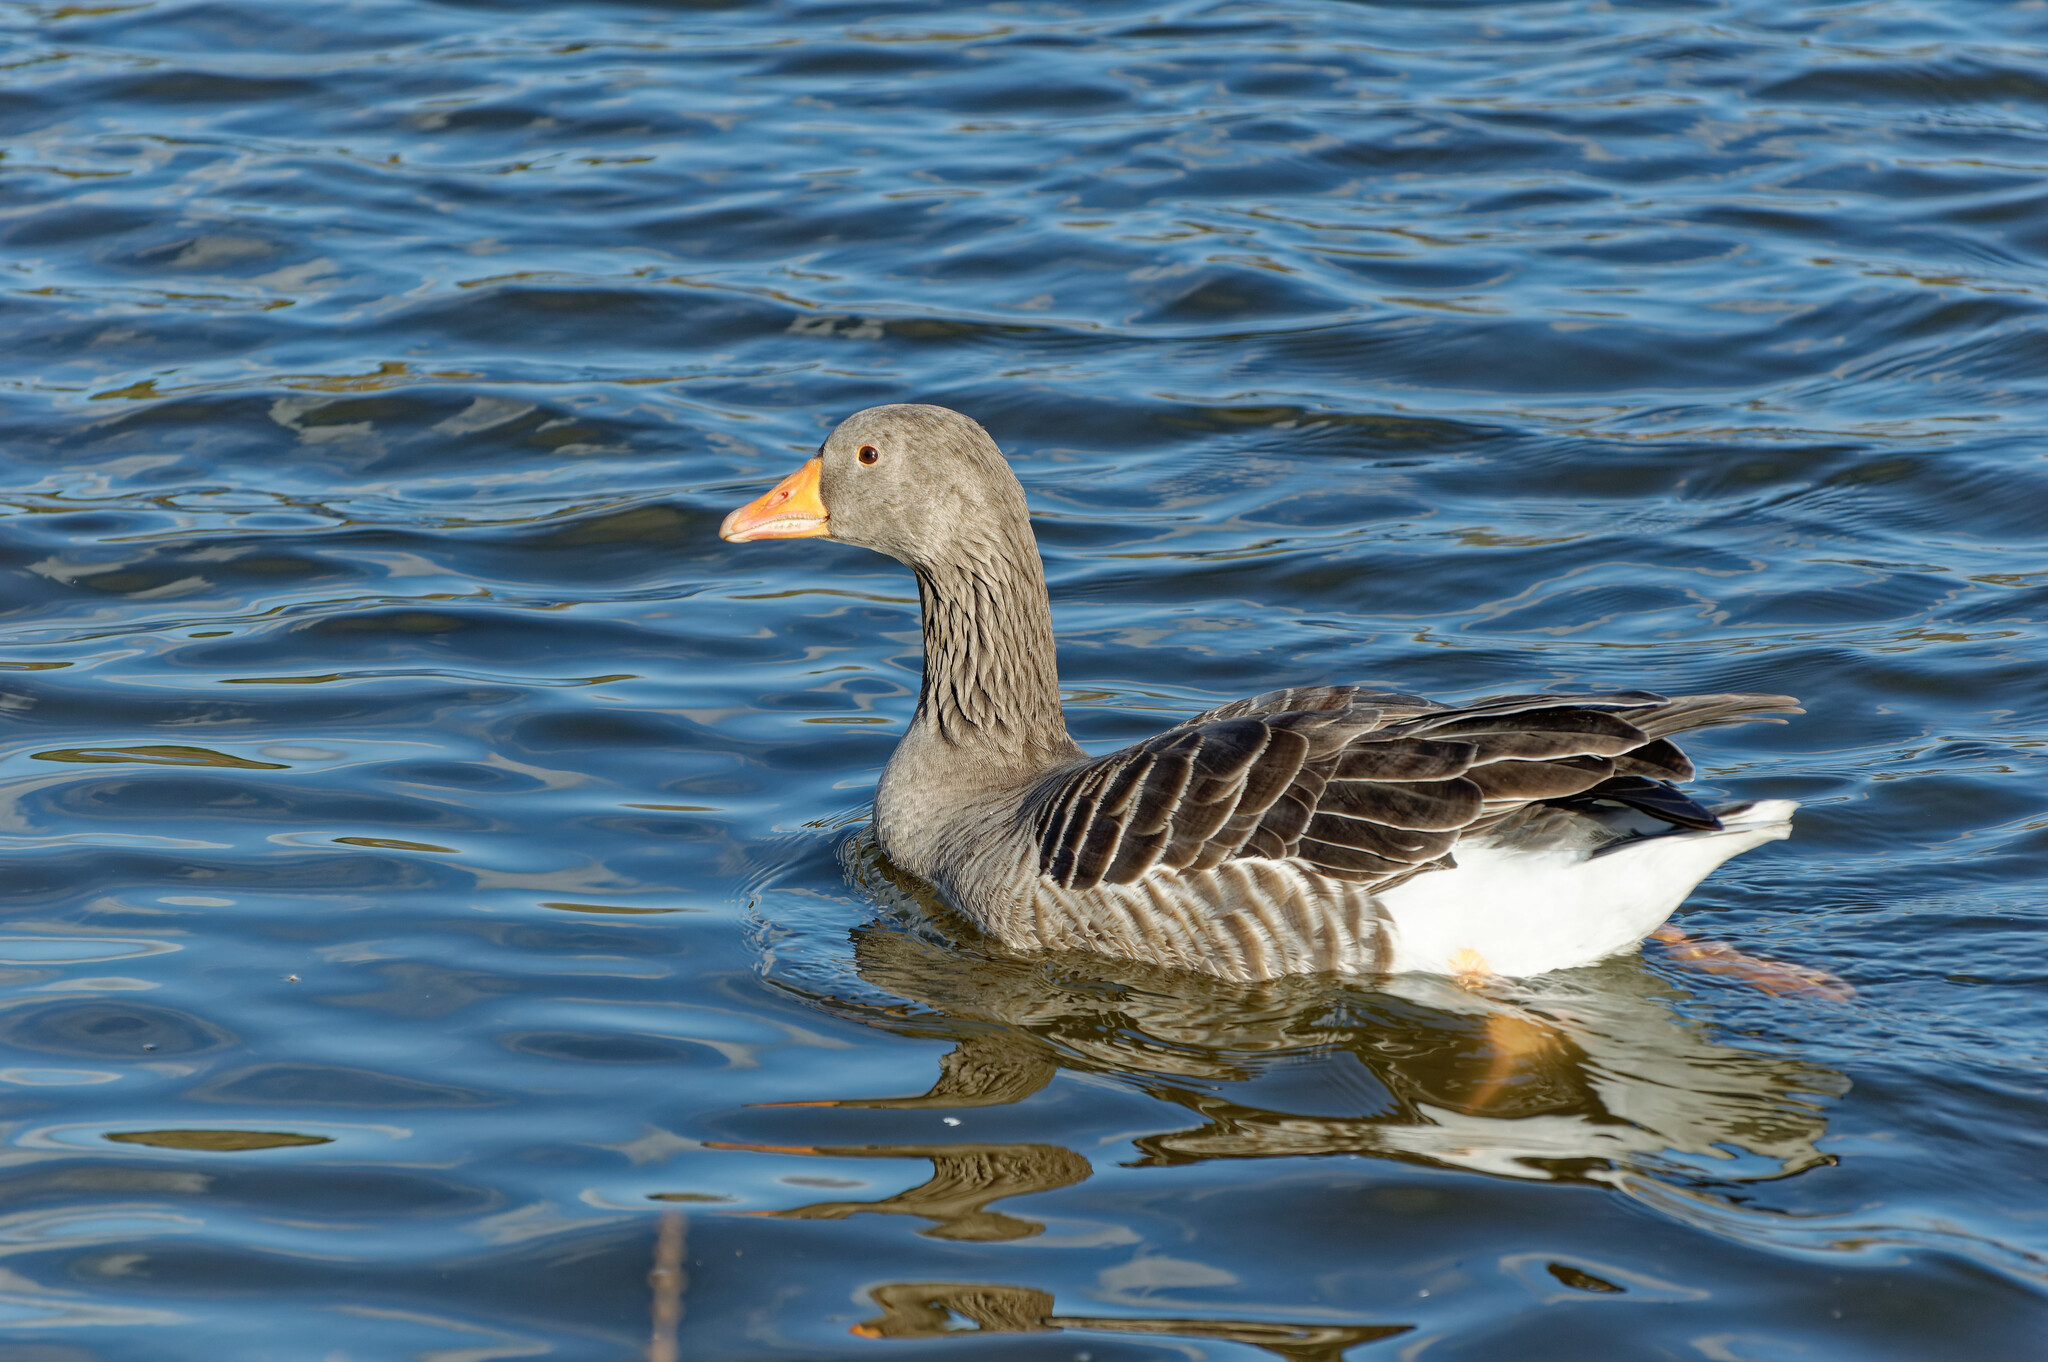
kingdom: Animalia
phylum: Chordata
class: Aves
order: Anseriformes
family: Anatidae
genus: Anser
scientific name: Anser anser
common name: Greylag goose
